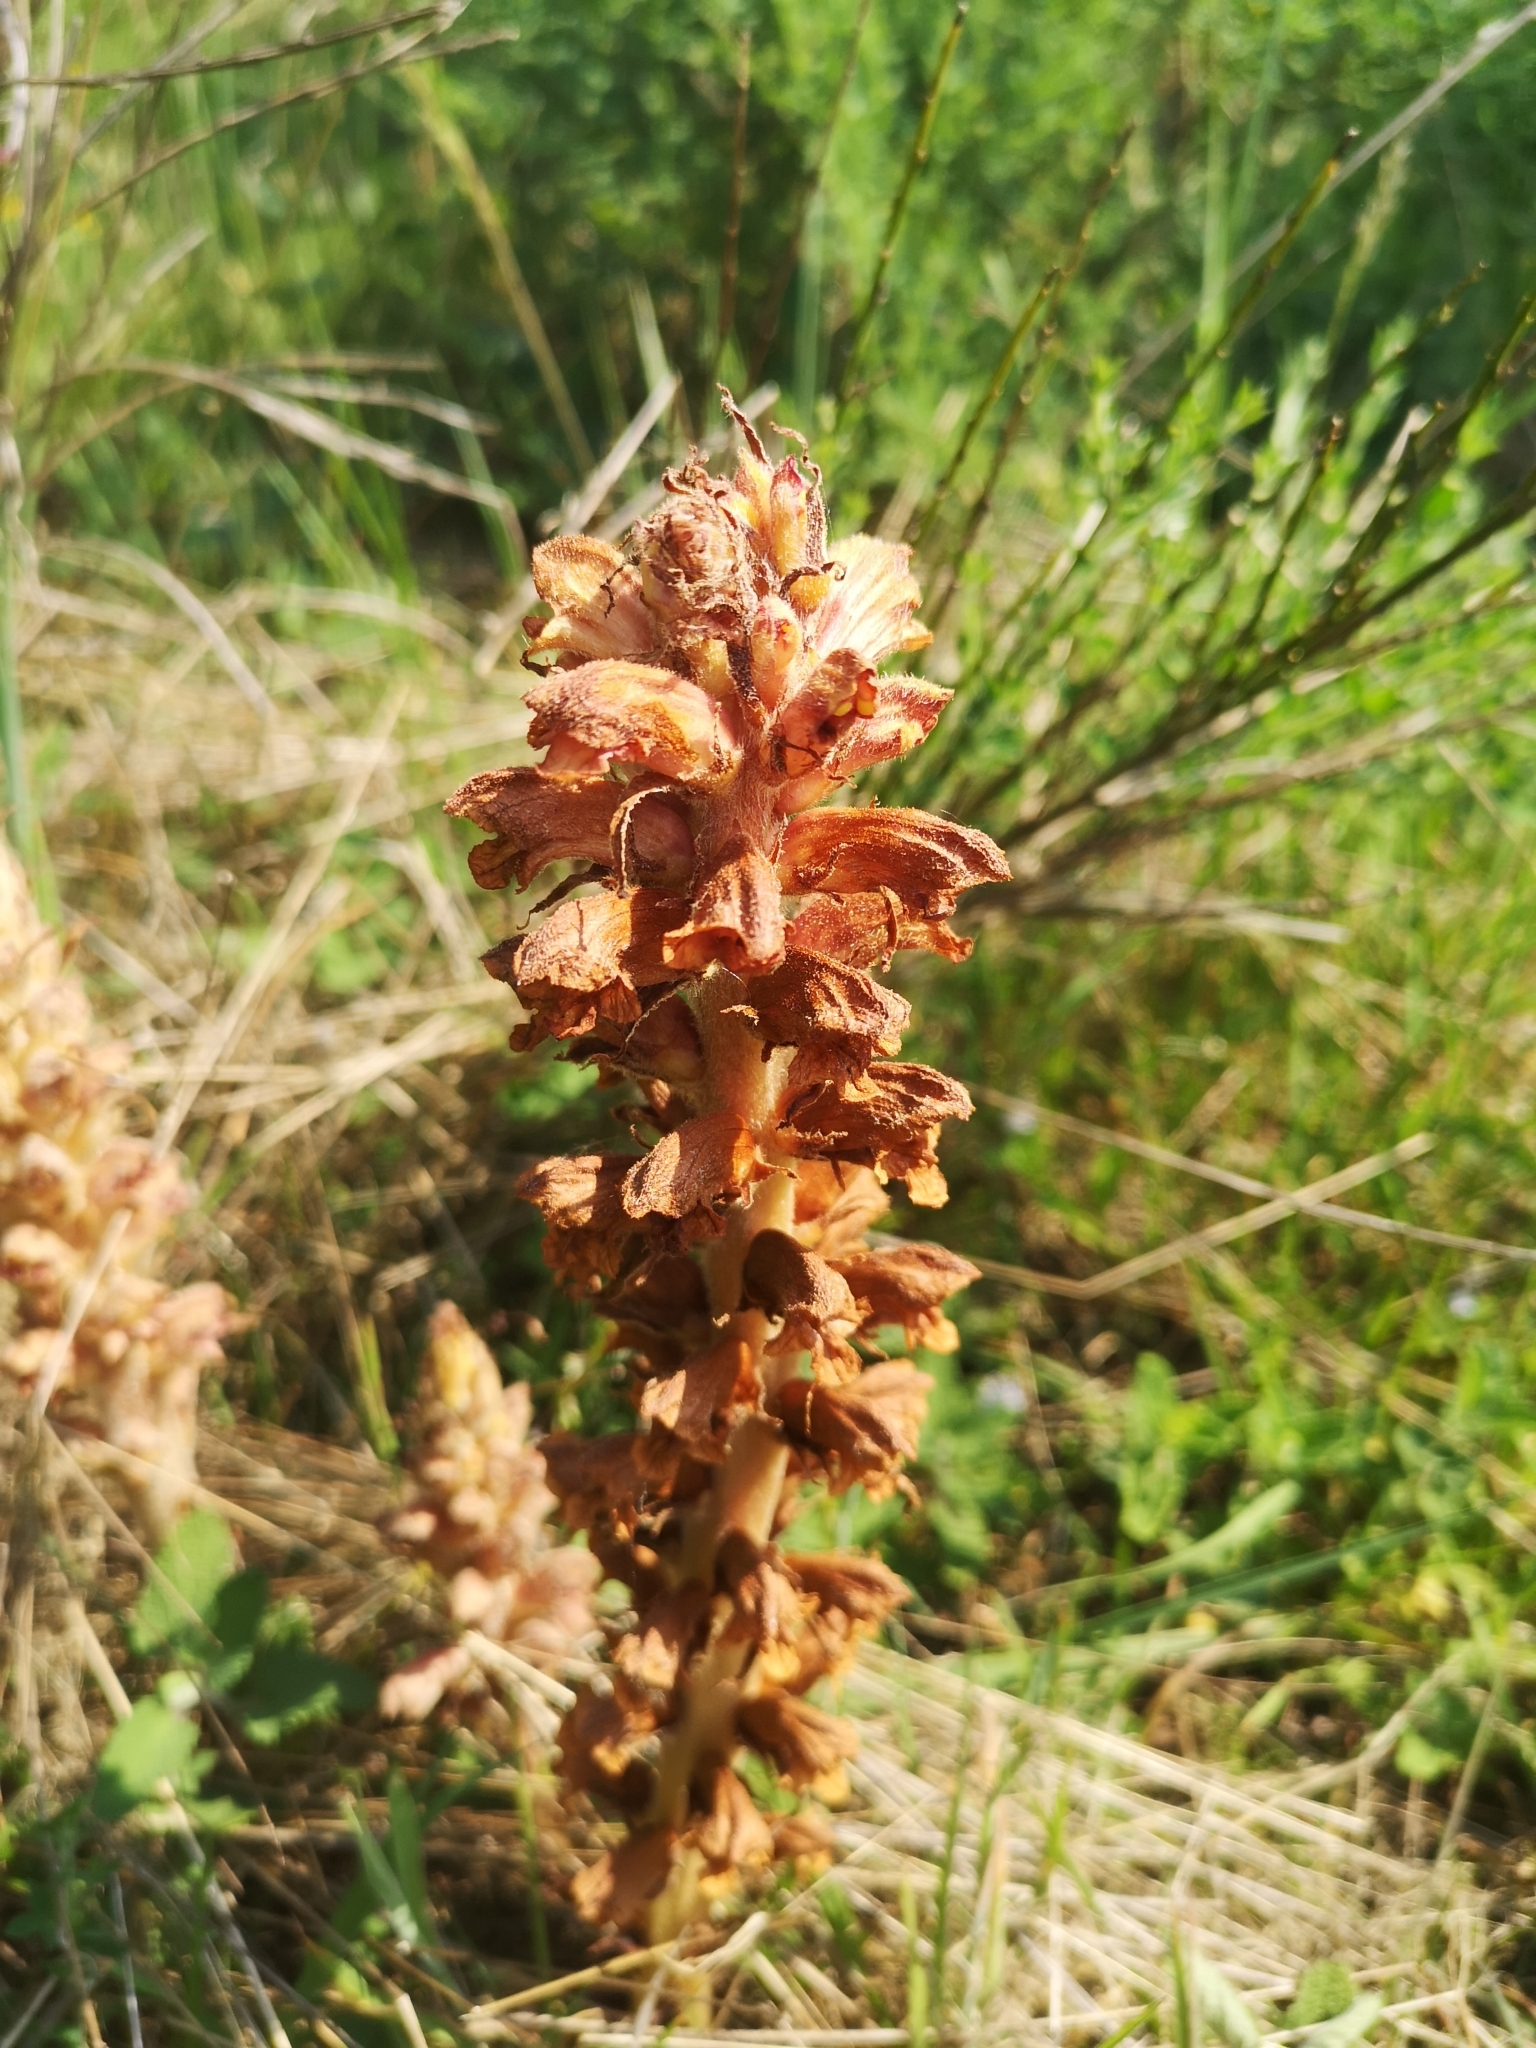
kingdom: Plantae
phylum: Tracheophyta
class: Magnoliopsida
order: Lamiales
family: Orobanchaceae
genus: Orobanche
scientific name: Orobanche rapum-genistae
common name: Greater broomrape
